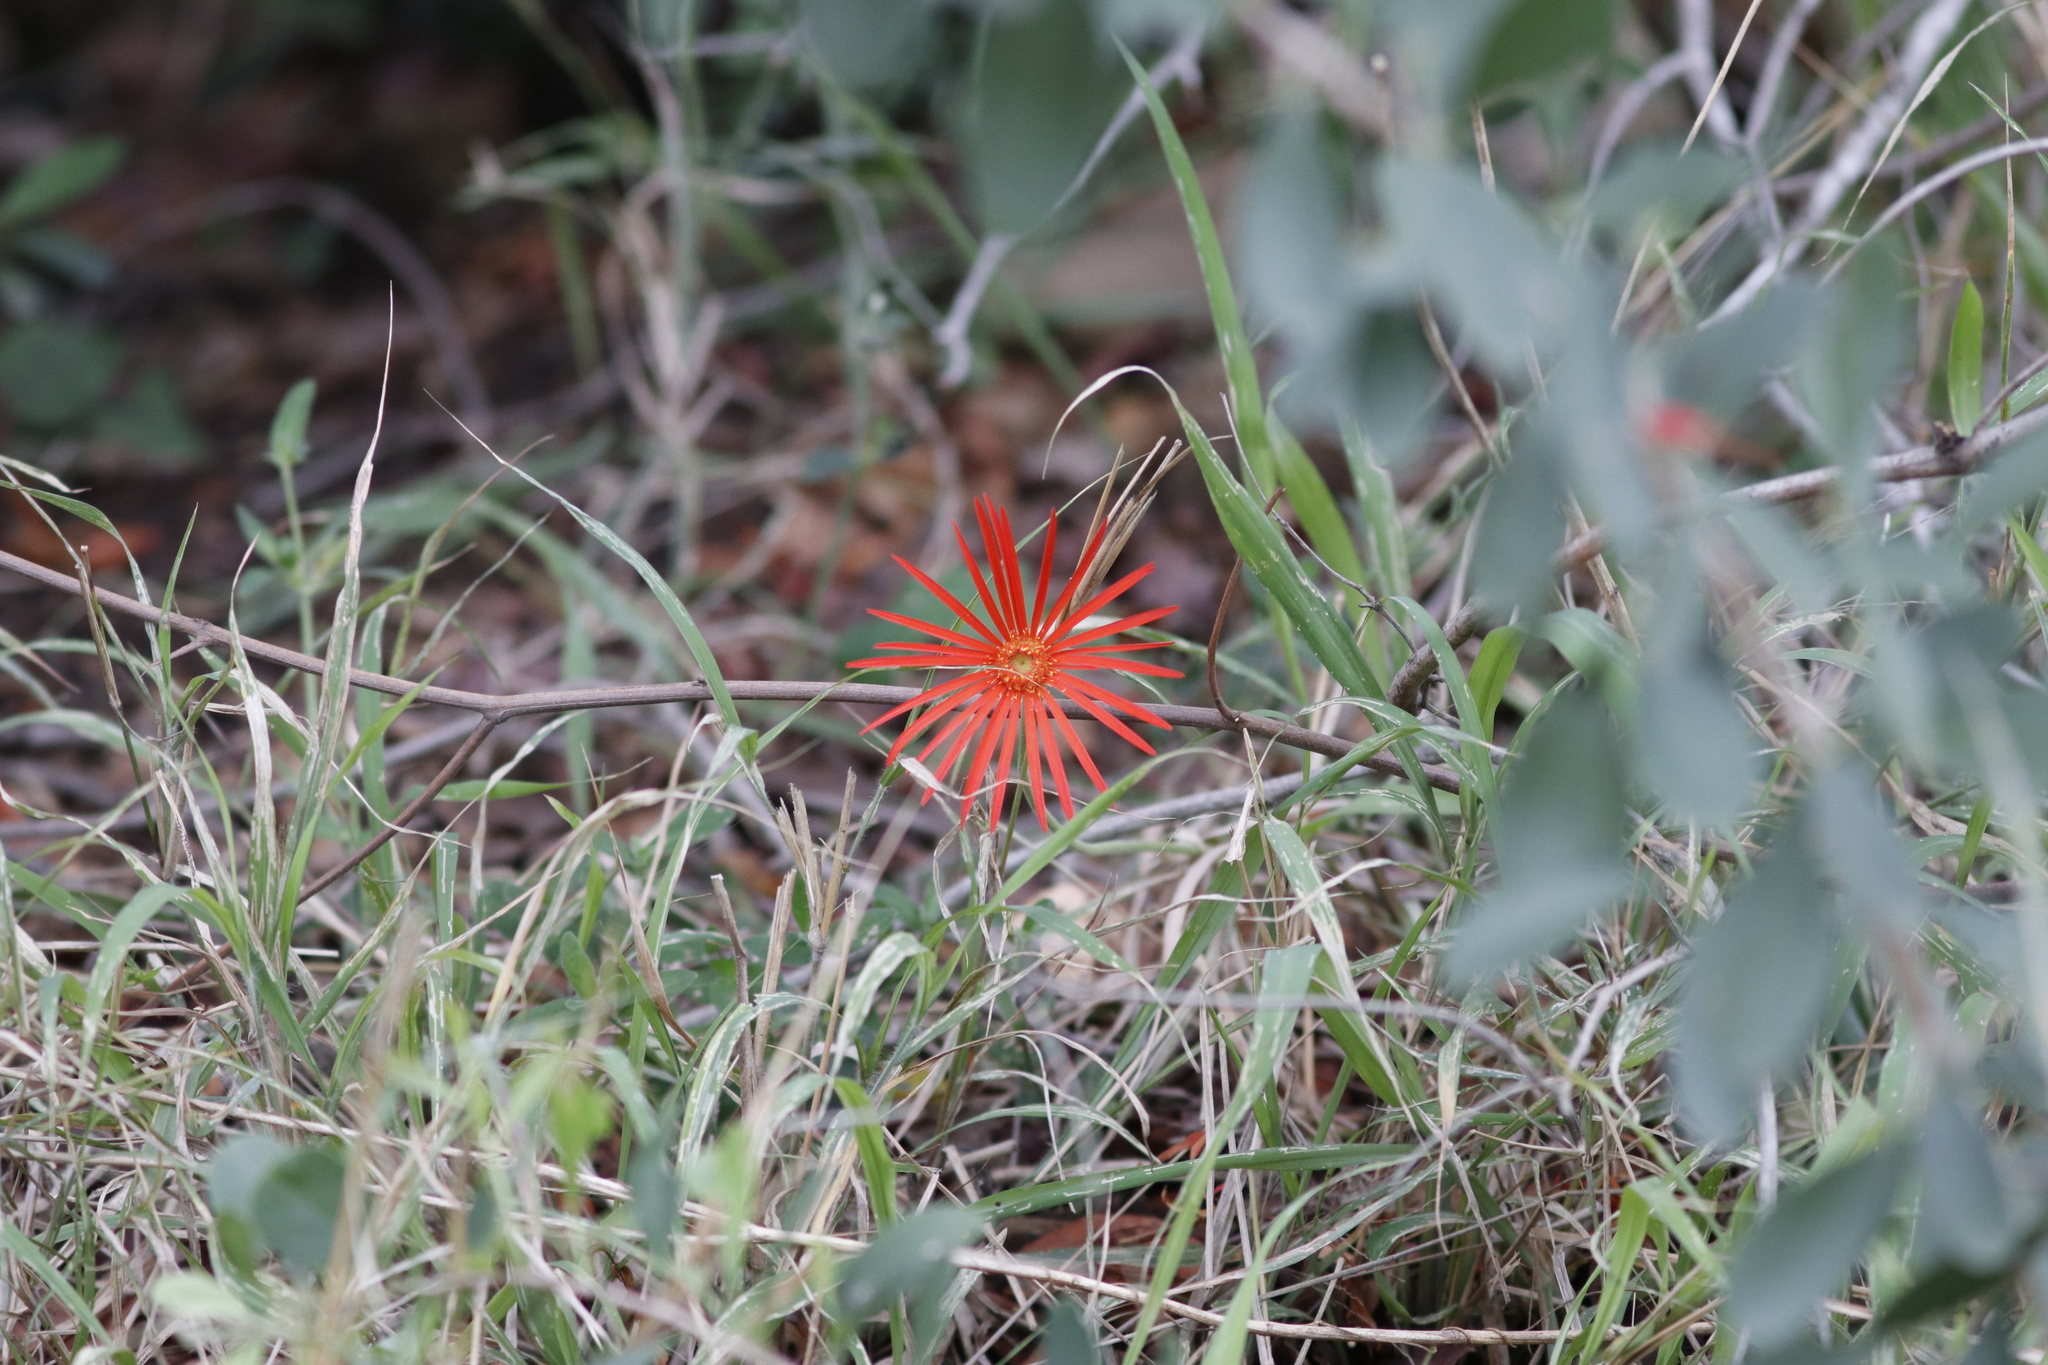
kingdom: Plantae
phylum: Tracheophyta
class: Magnoliopsida
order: Asterales
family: Asteraceae
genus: Gerbera
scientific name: Gerbera jamesonii
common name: African daisy
